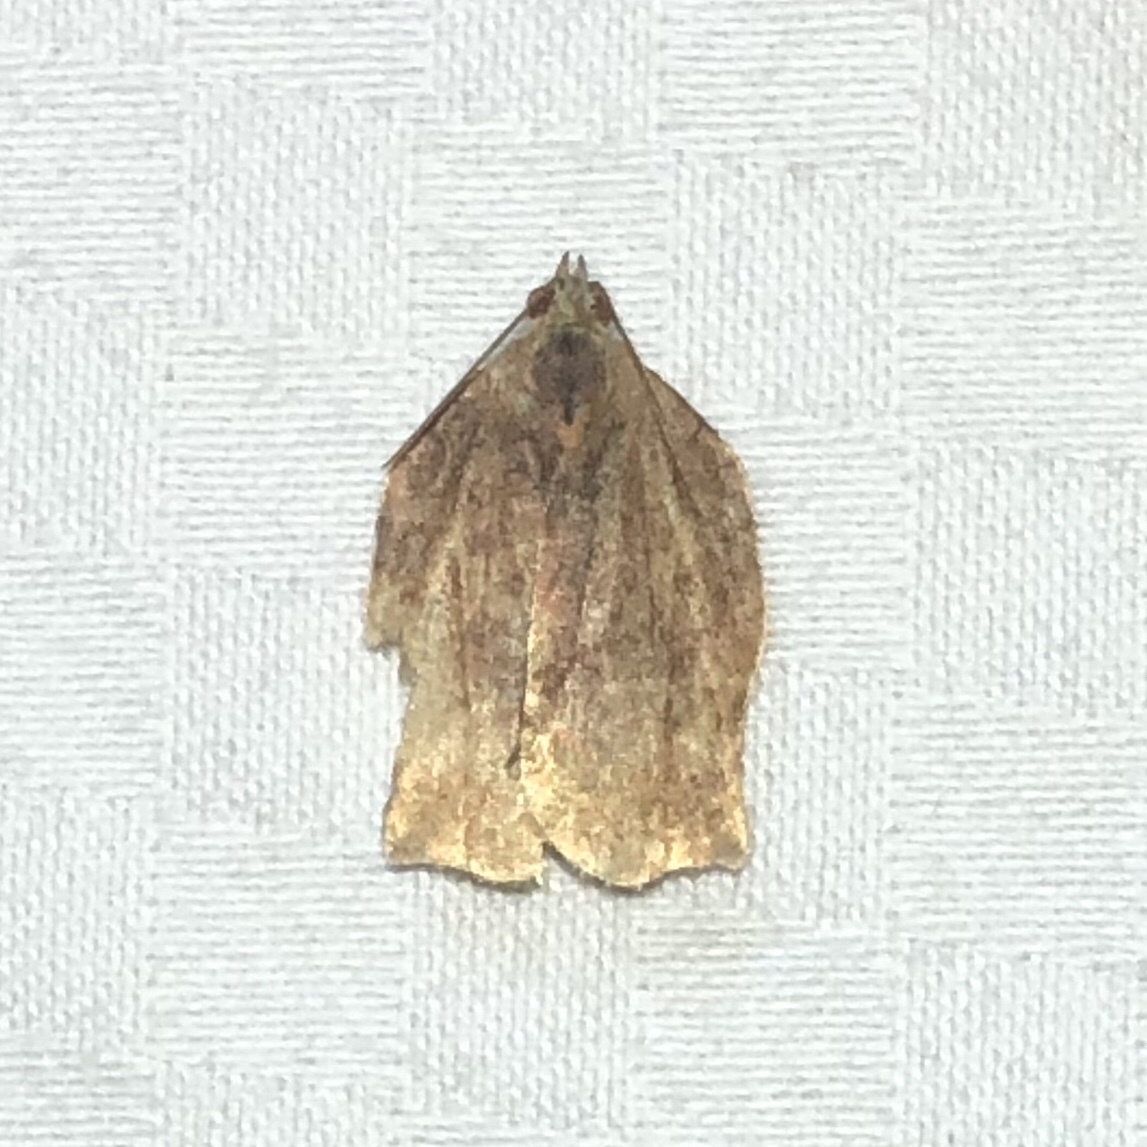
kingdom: Animalia
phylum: Arthropoda
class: Insecta
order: Lepidoptera
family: Tortricidae
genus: Archips
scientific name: Archips purpurana
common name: Omnivorous leafroller
